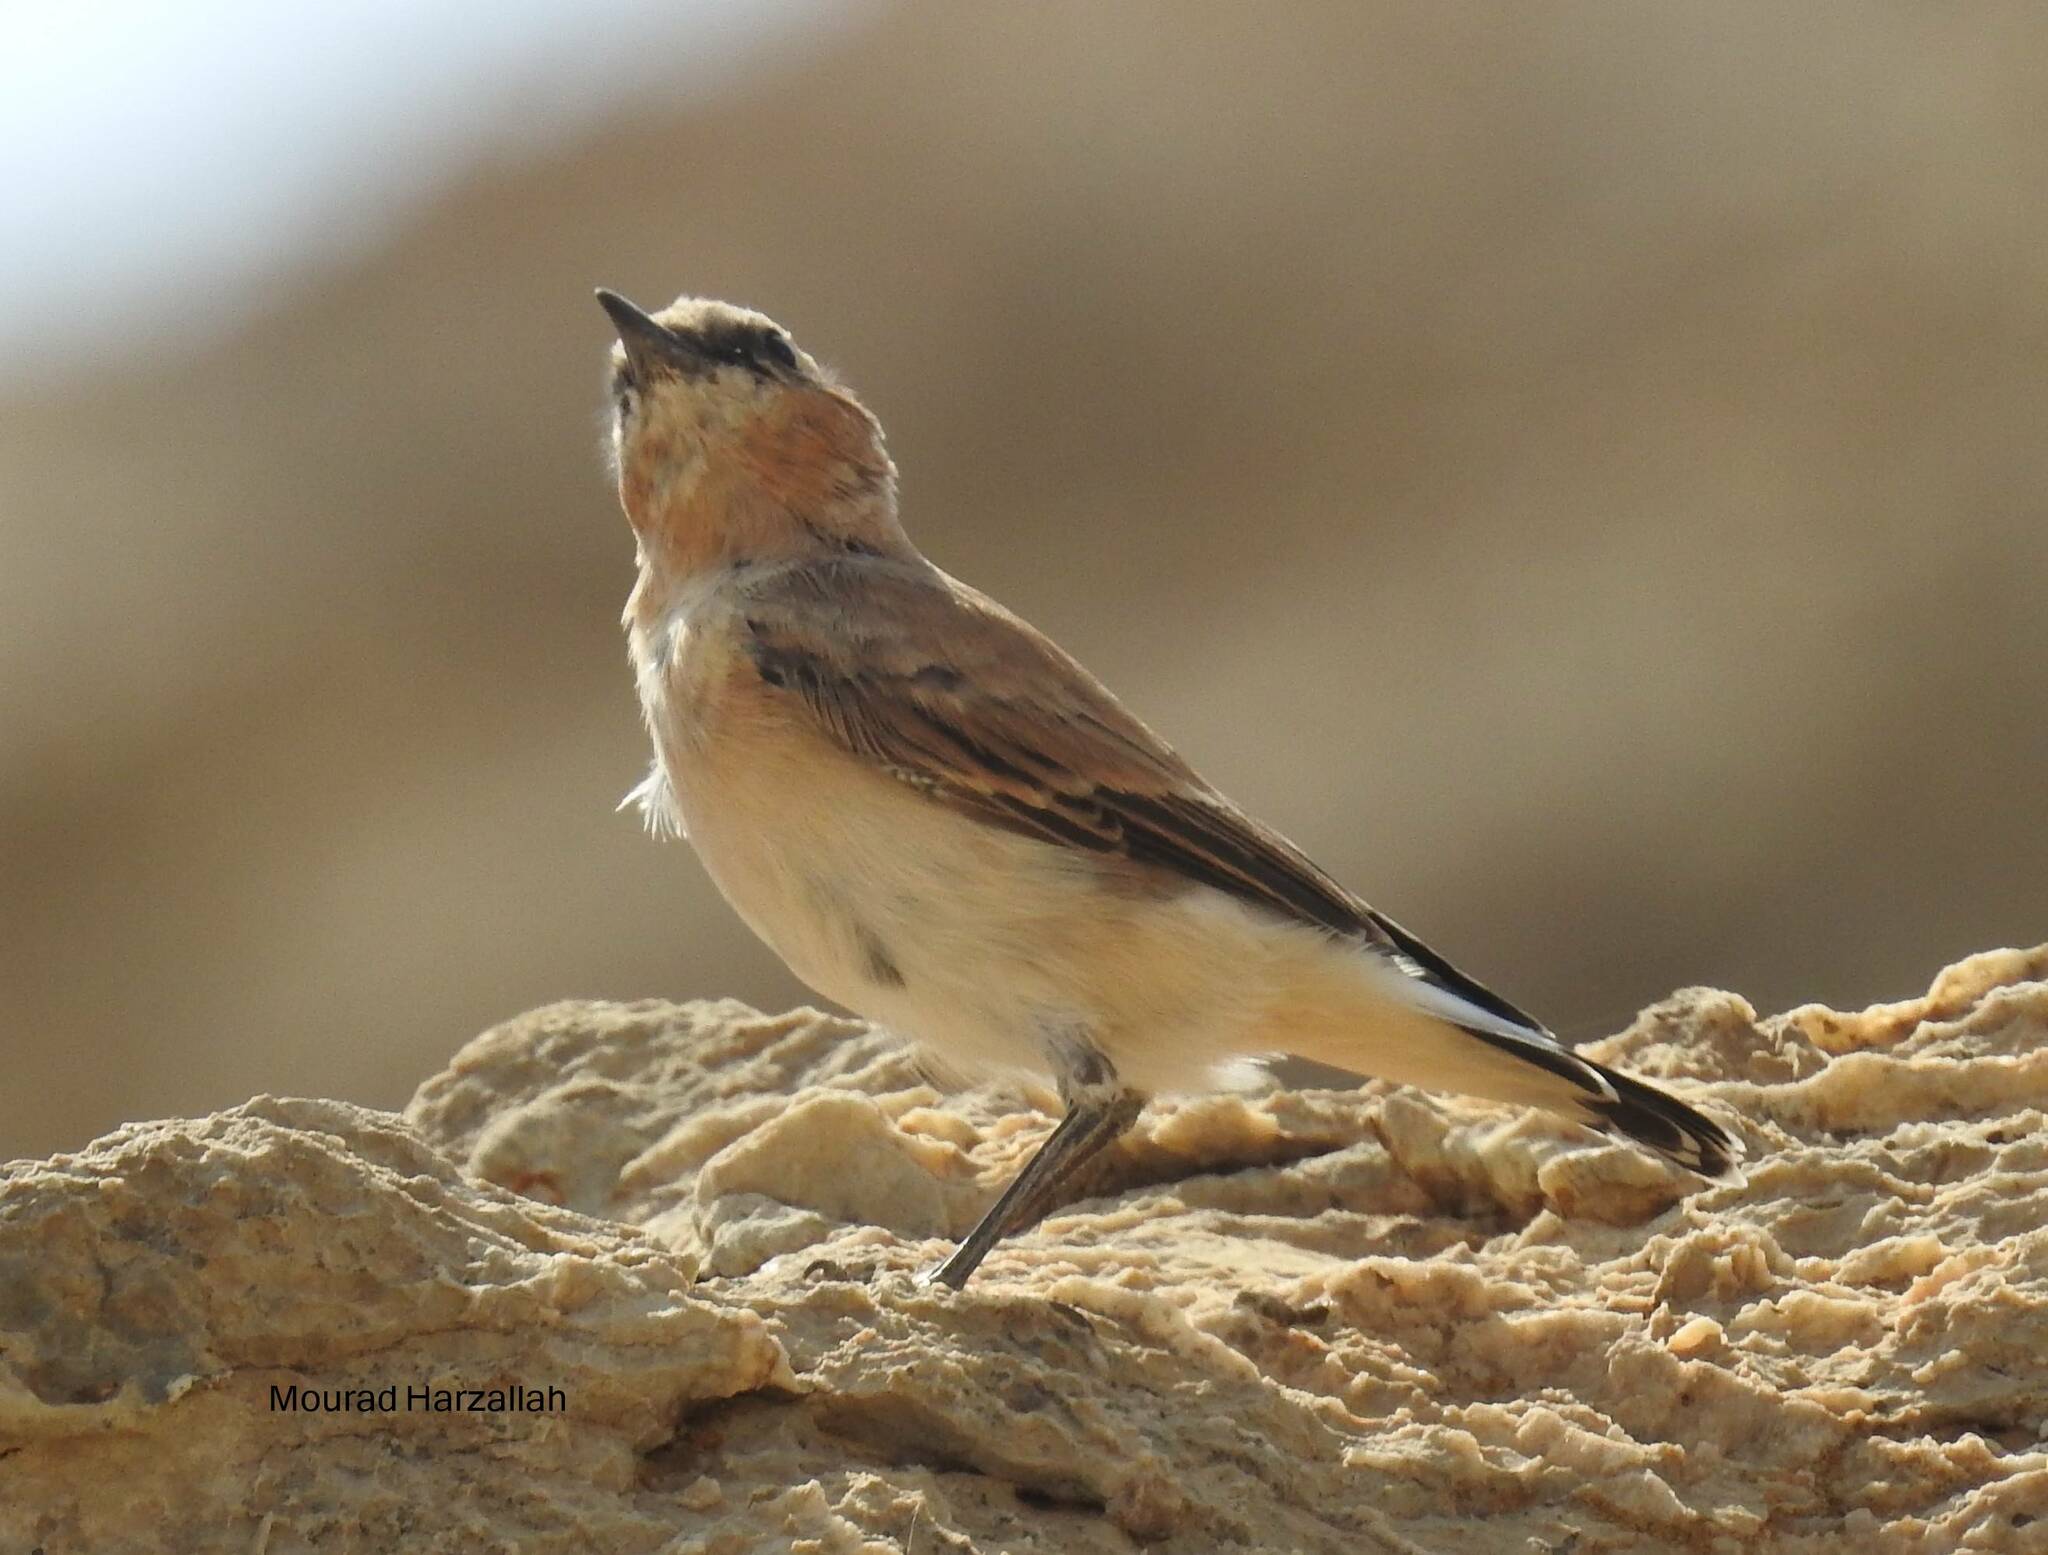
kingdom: Animalia
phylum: Chordata
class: Aves
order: Passeriformes
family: Muscicapidae
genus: Oenanthe
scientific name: Oenanthe oenanthe
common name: Northern wheatear
